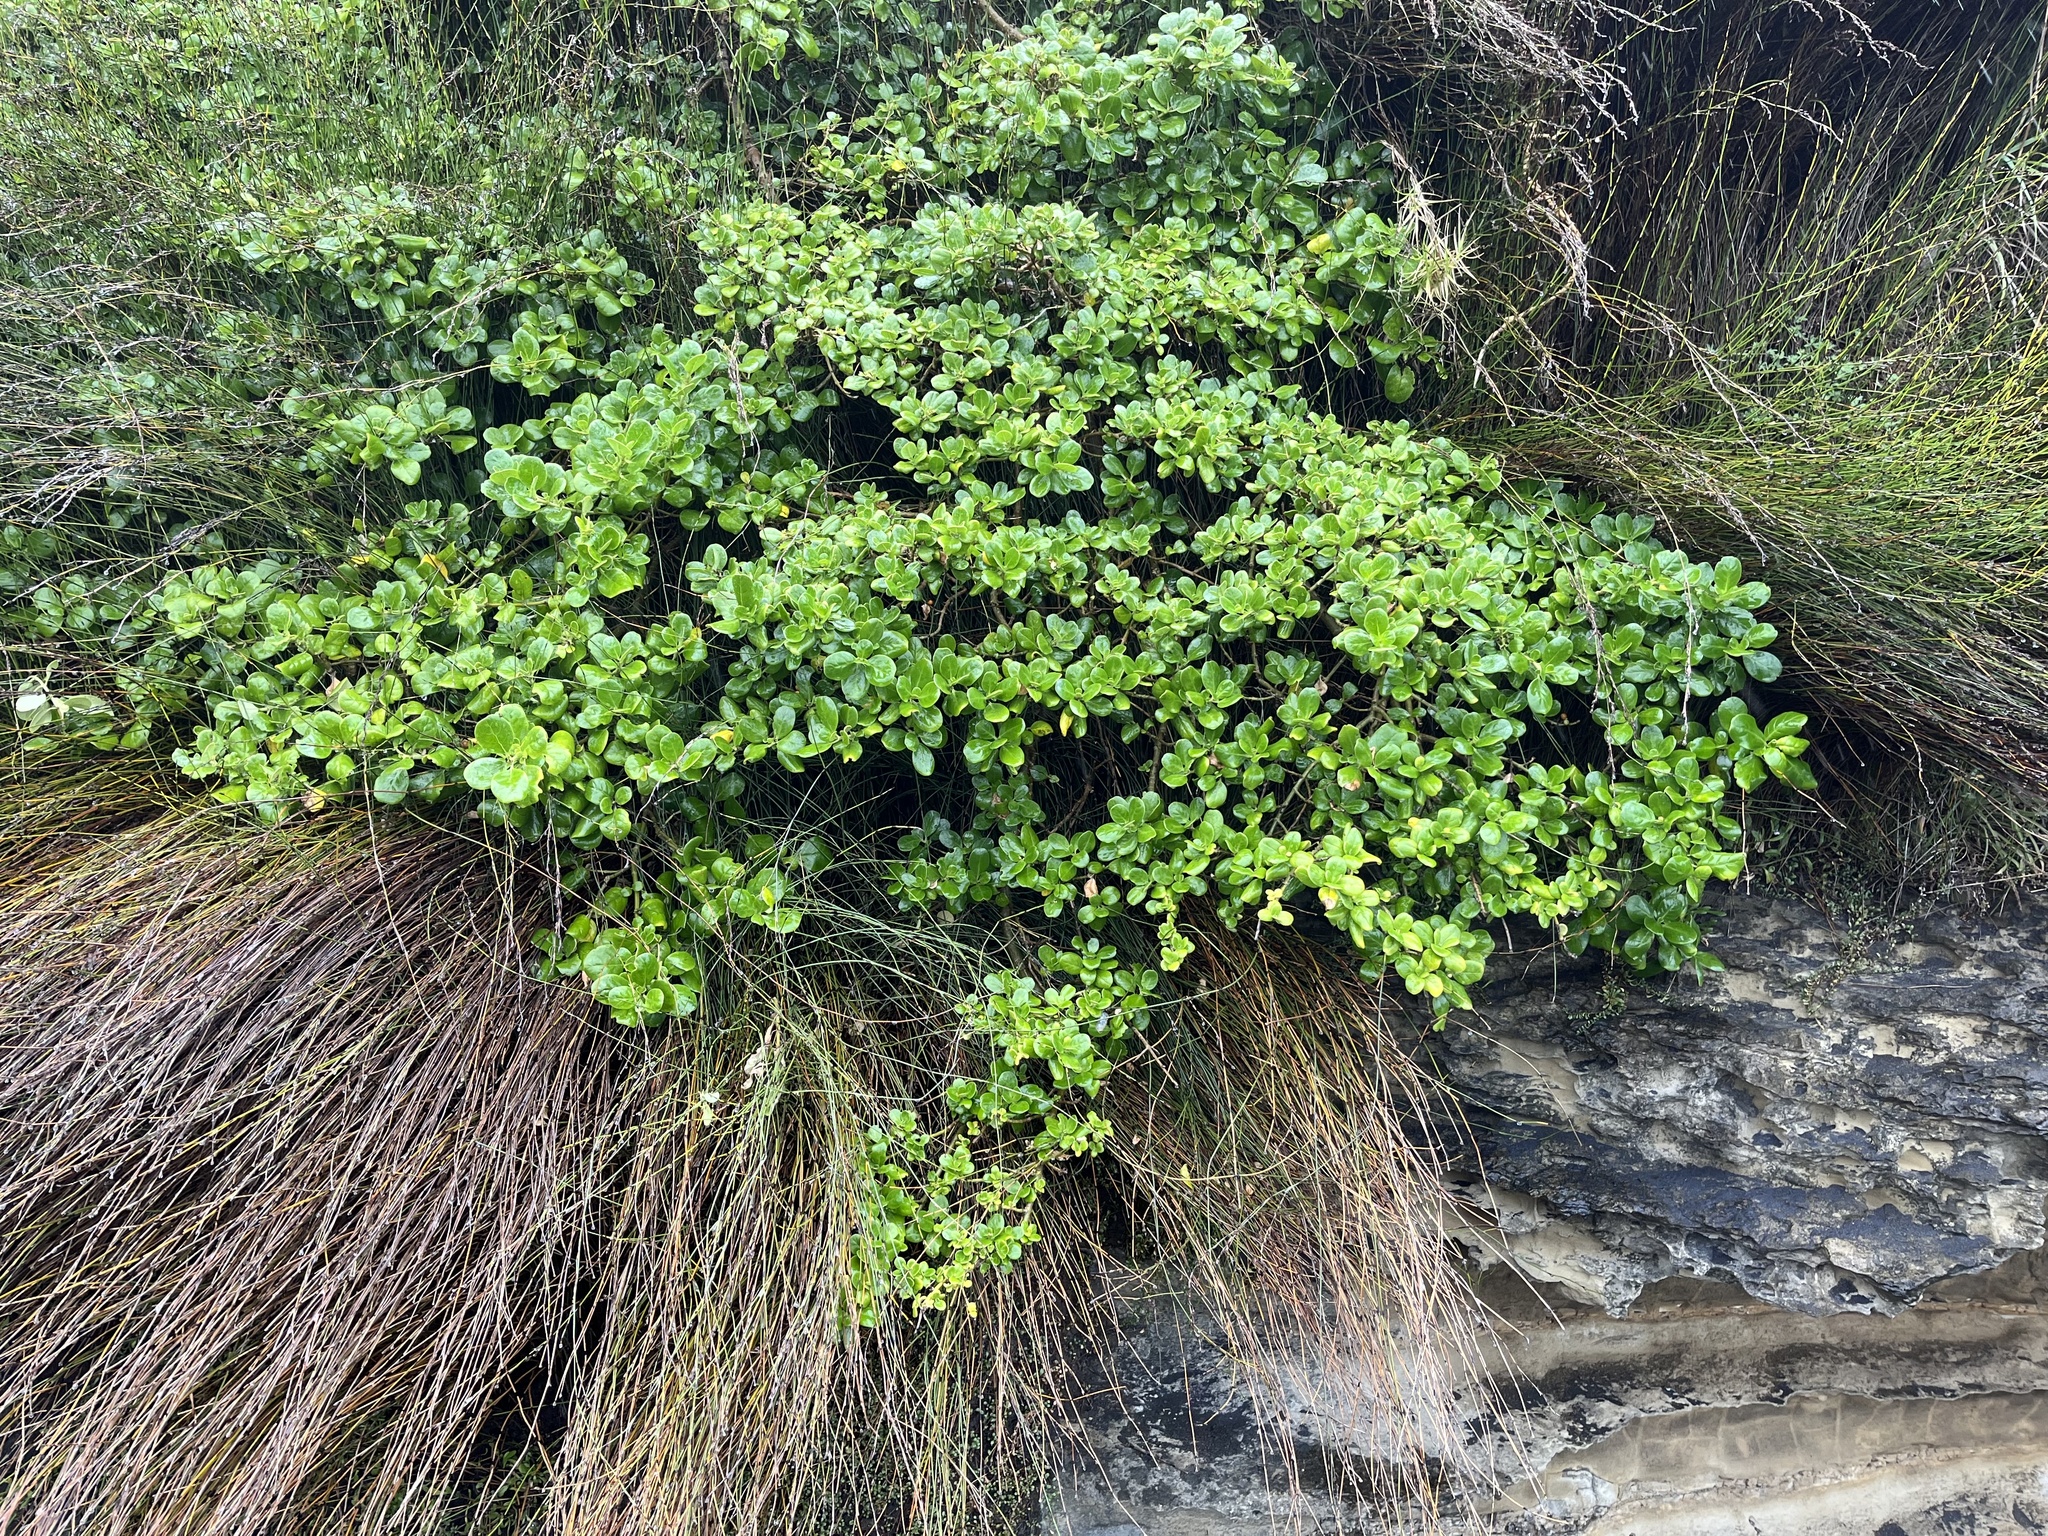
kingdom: Plantae
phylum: Tracheophyta
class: Magnoliopsida
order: Gentianales
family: Rubiaceae
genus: Coprosma
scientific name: Coprosma repens
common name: Tree bedstraw
